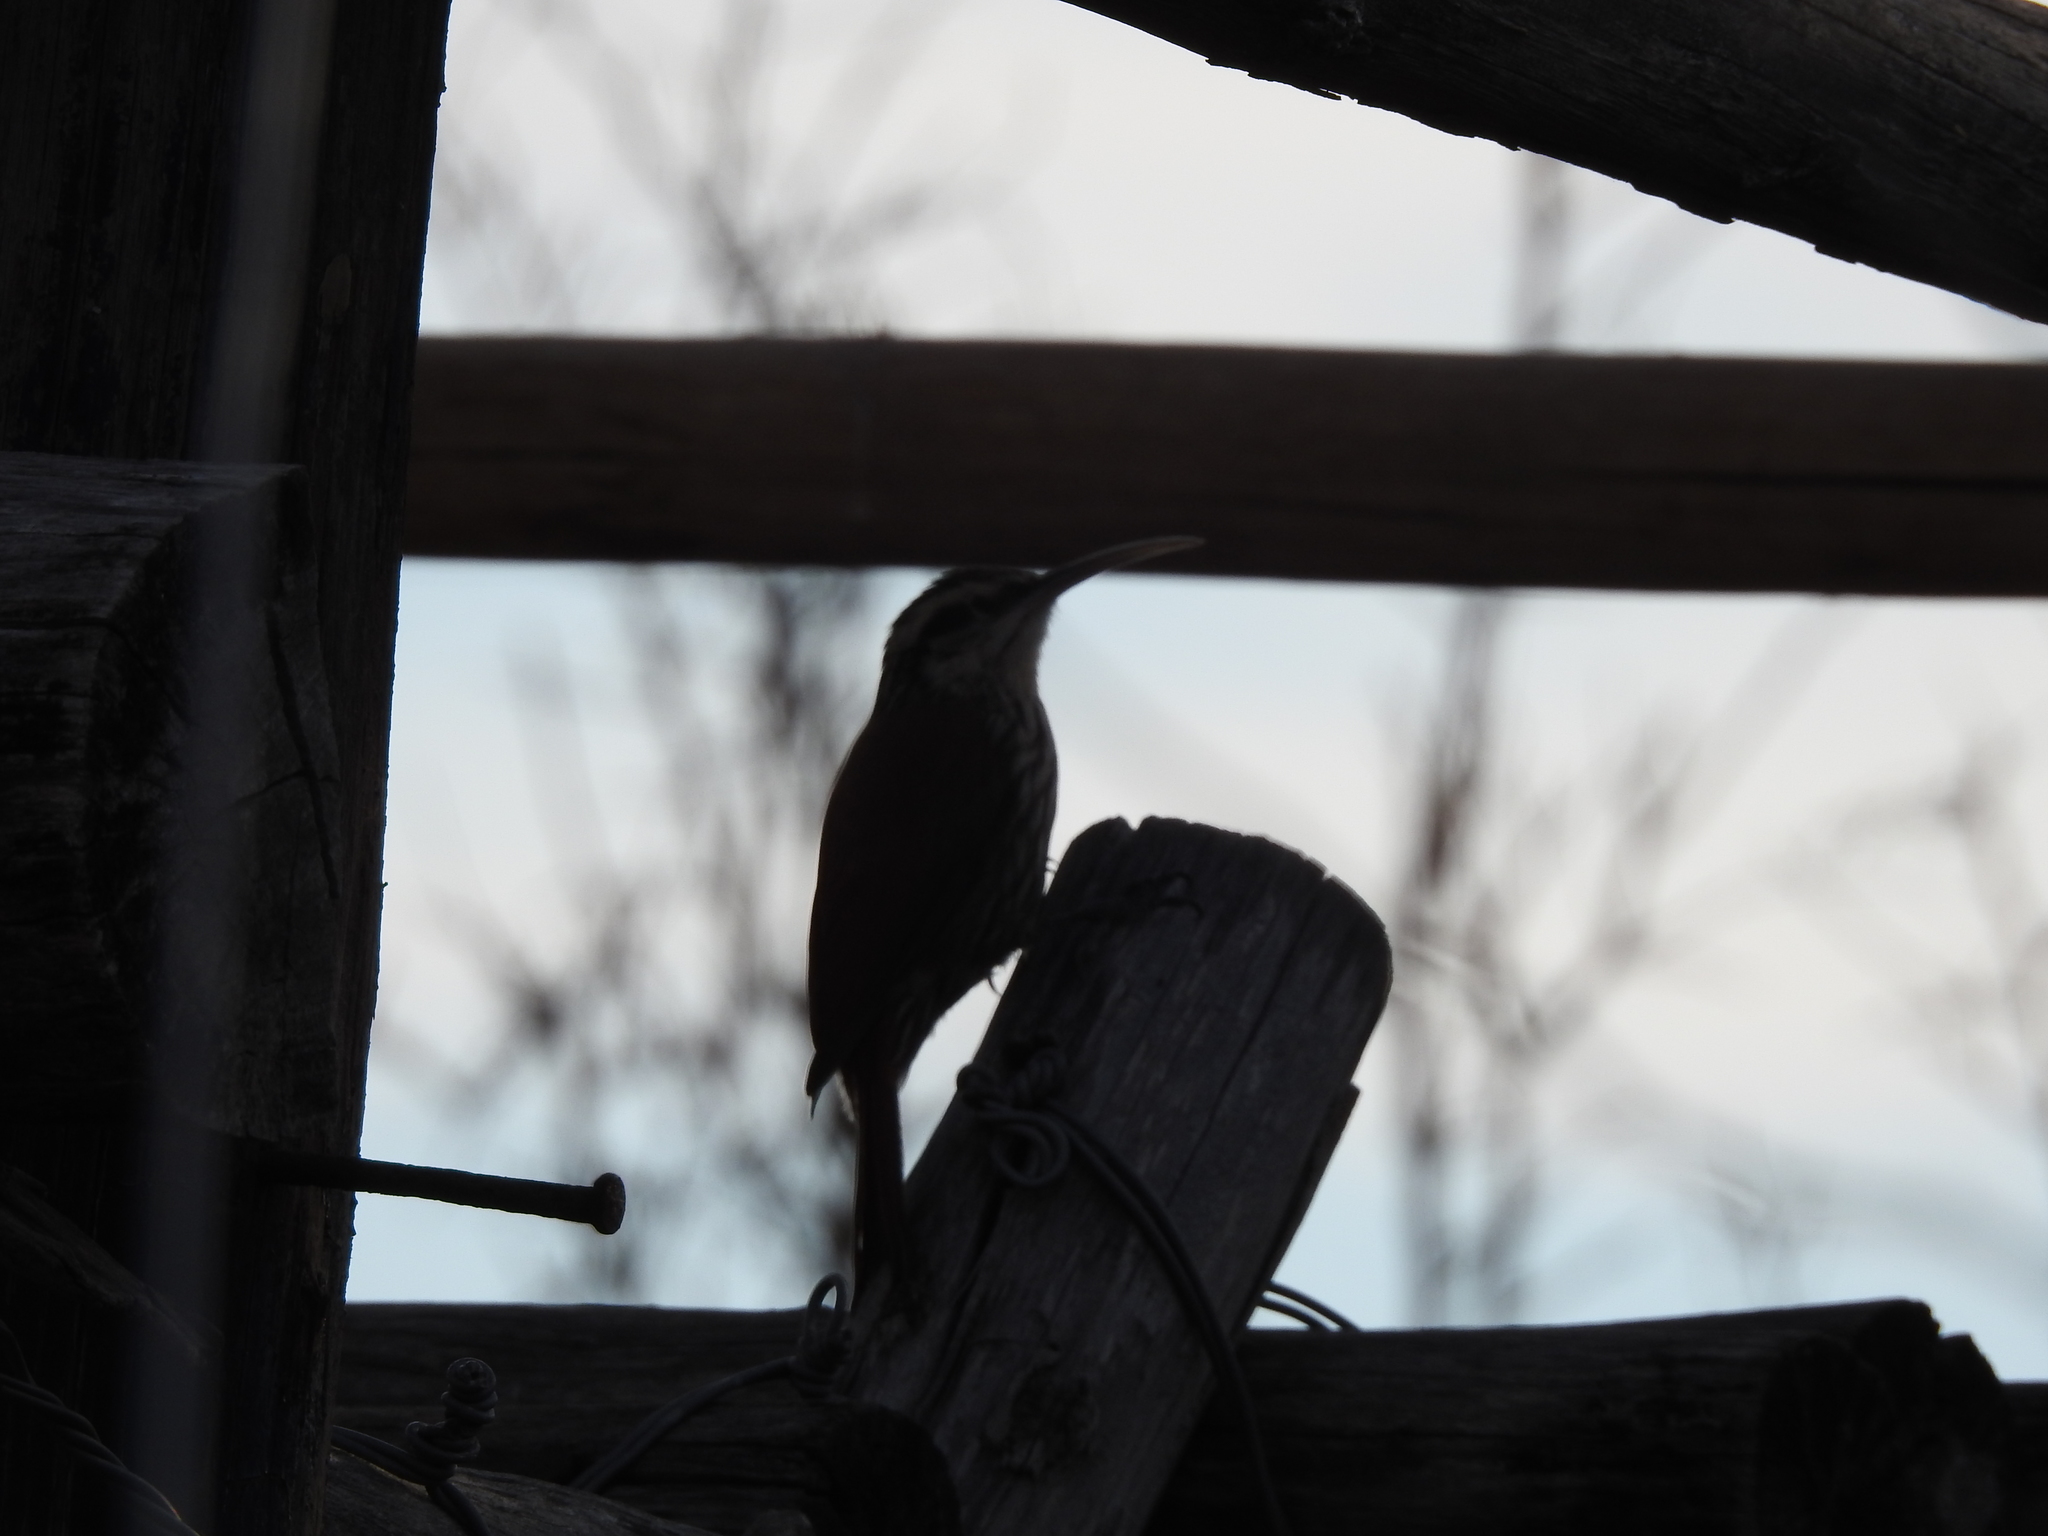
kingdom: Animalia
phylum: Chordata
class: Aves
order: Passeriformes
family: Furnariidae
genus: Lepidocolaptes
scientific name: Lepidocolaptes angustirostris
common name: Narrow-billed woodcreeper
